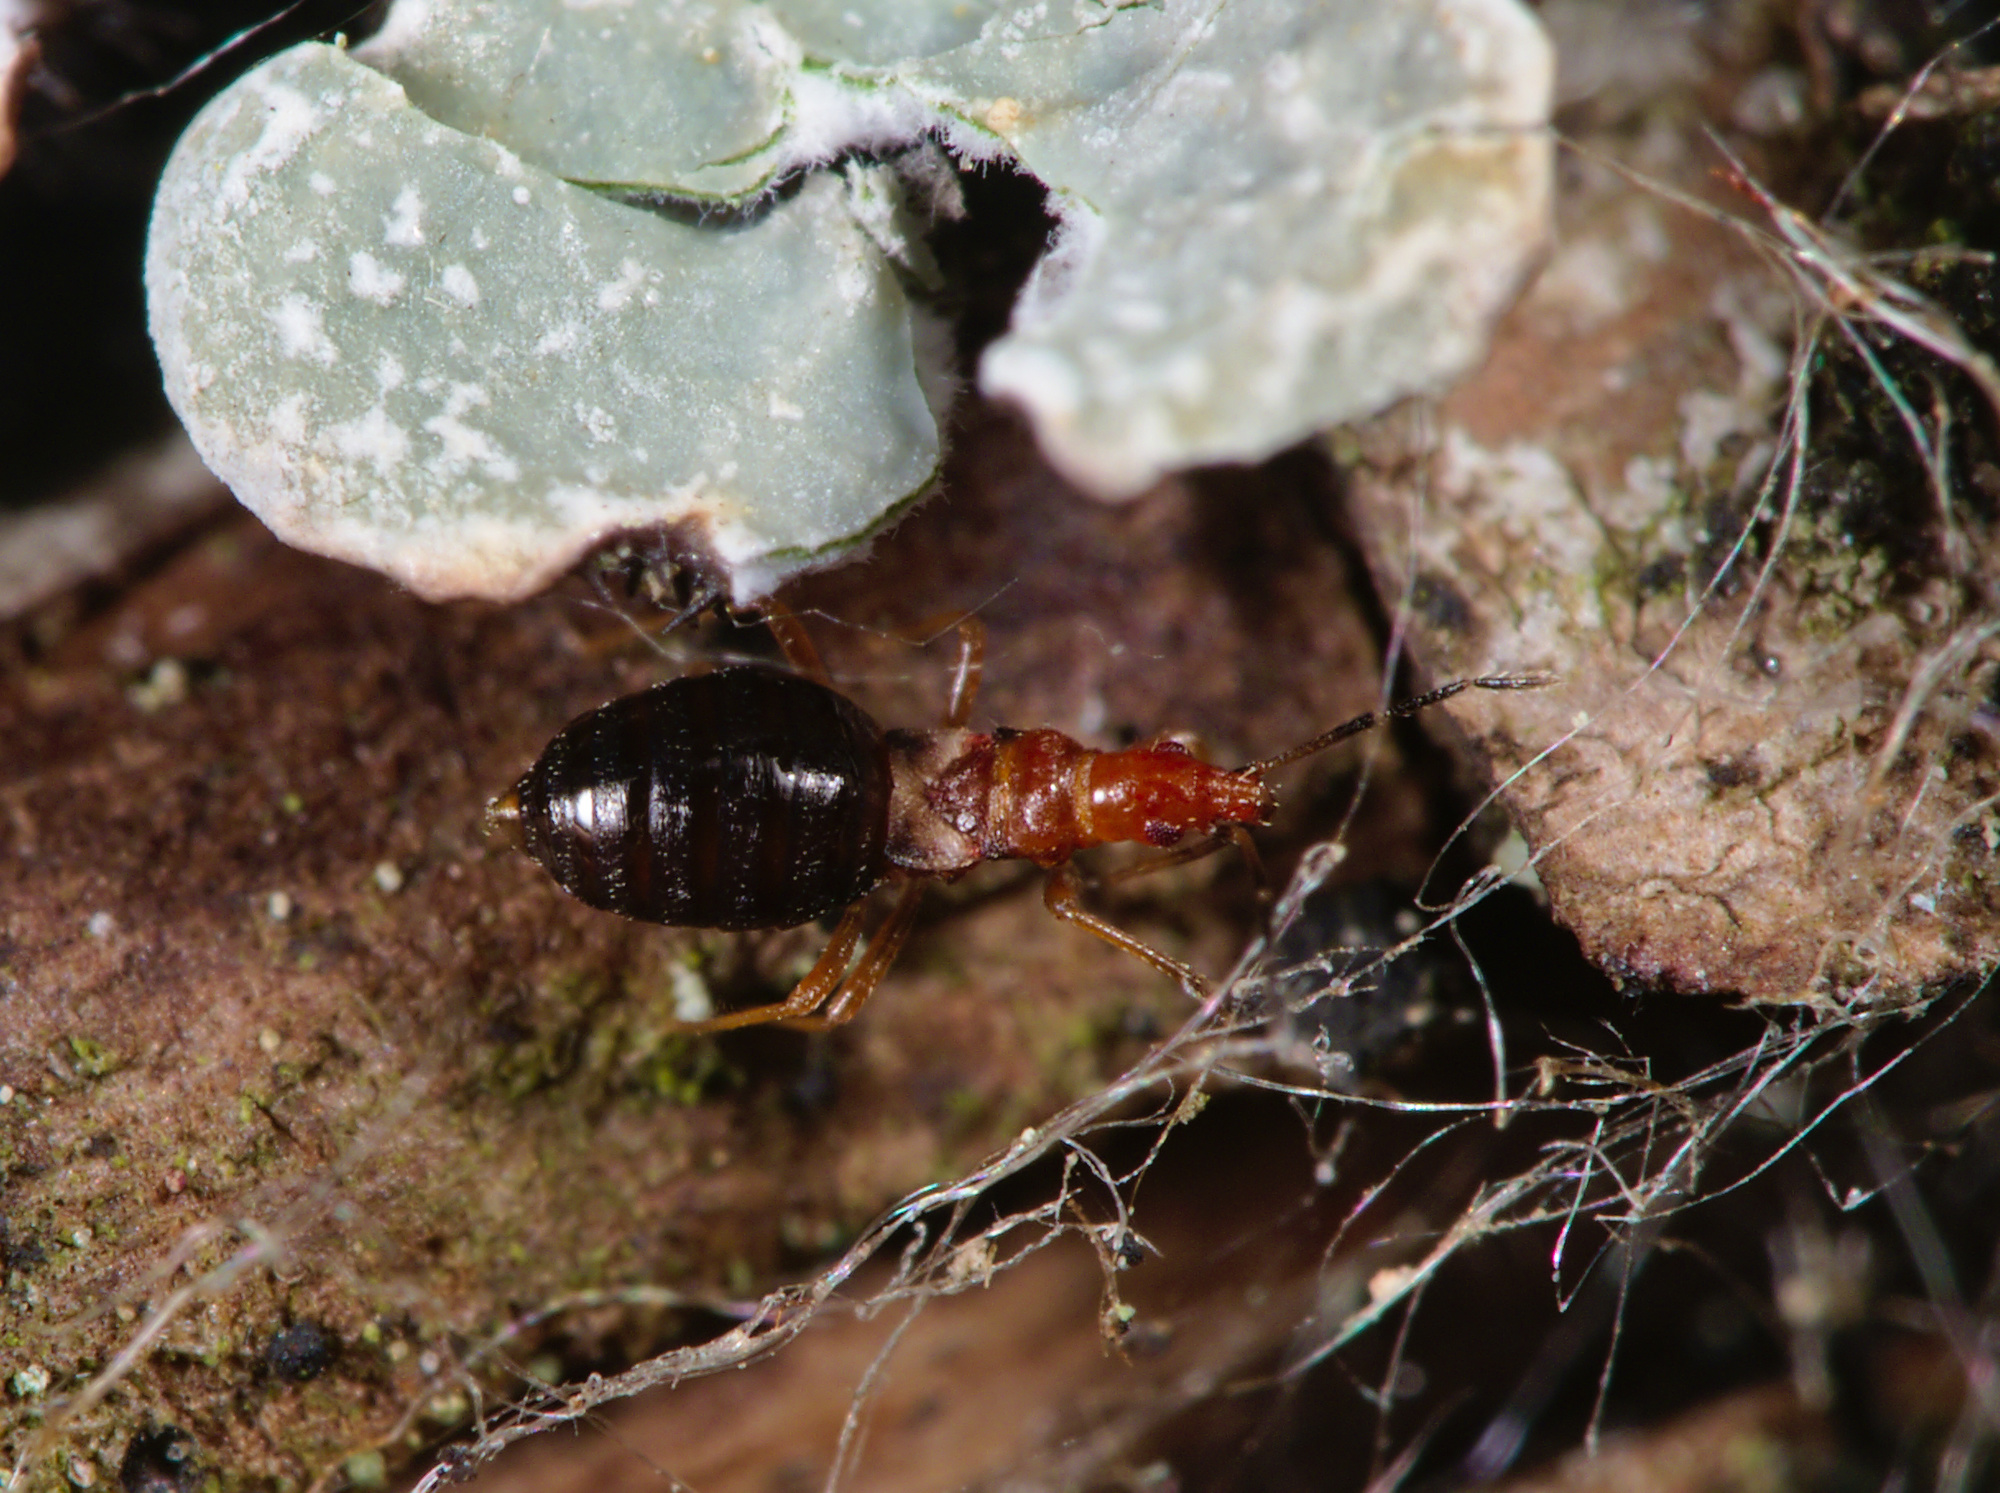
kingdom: Animalia
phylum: Arthropoda
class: Insecta
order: Hemiptera
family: Microphysidae
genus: Loricula
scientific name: Loricula elegantula
